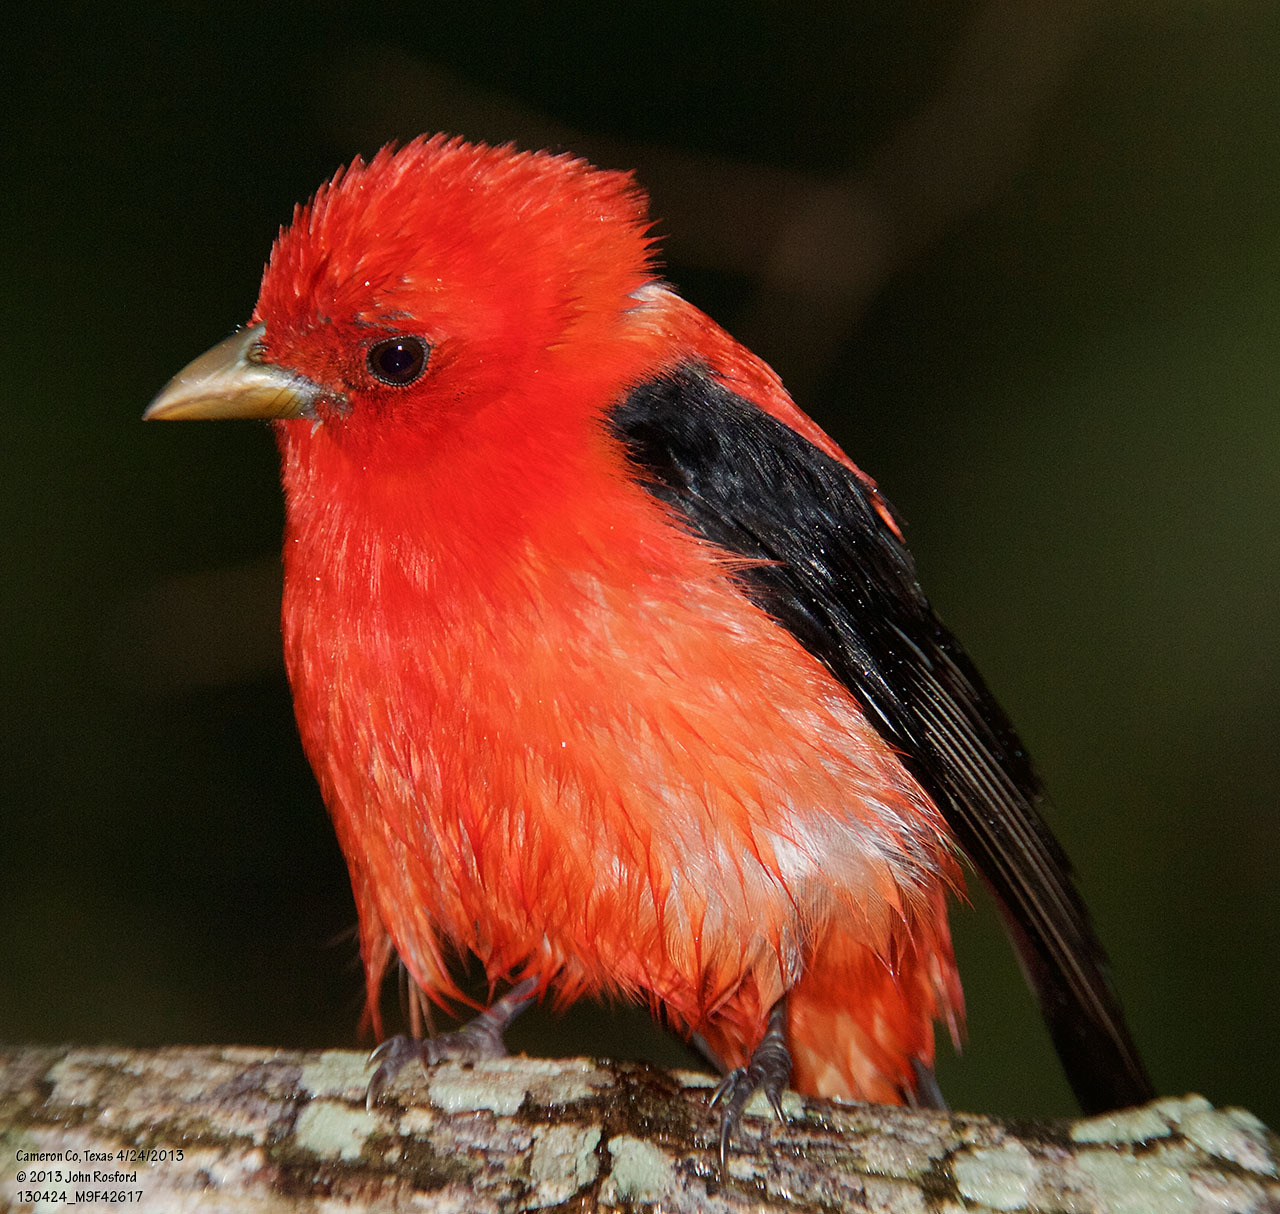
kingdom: Animalia
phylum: Chordata
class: Aves
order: Passeriformes
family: Cardinalidae
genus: Piranga
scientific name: Piranga olivacea
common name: Scarlet tanager
